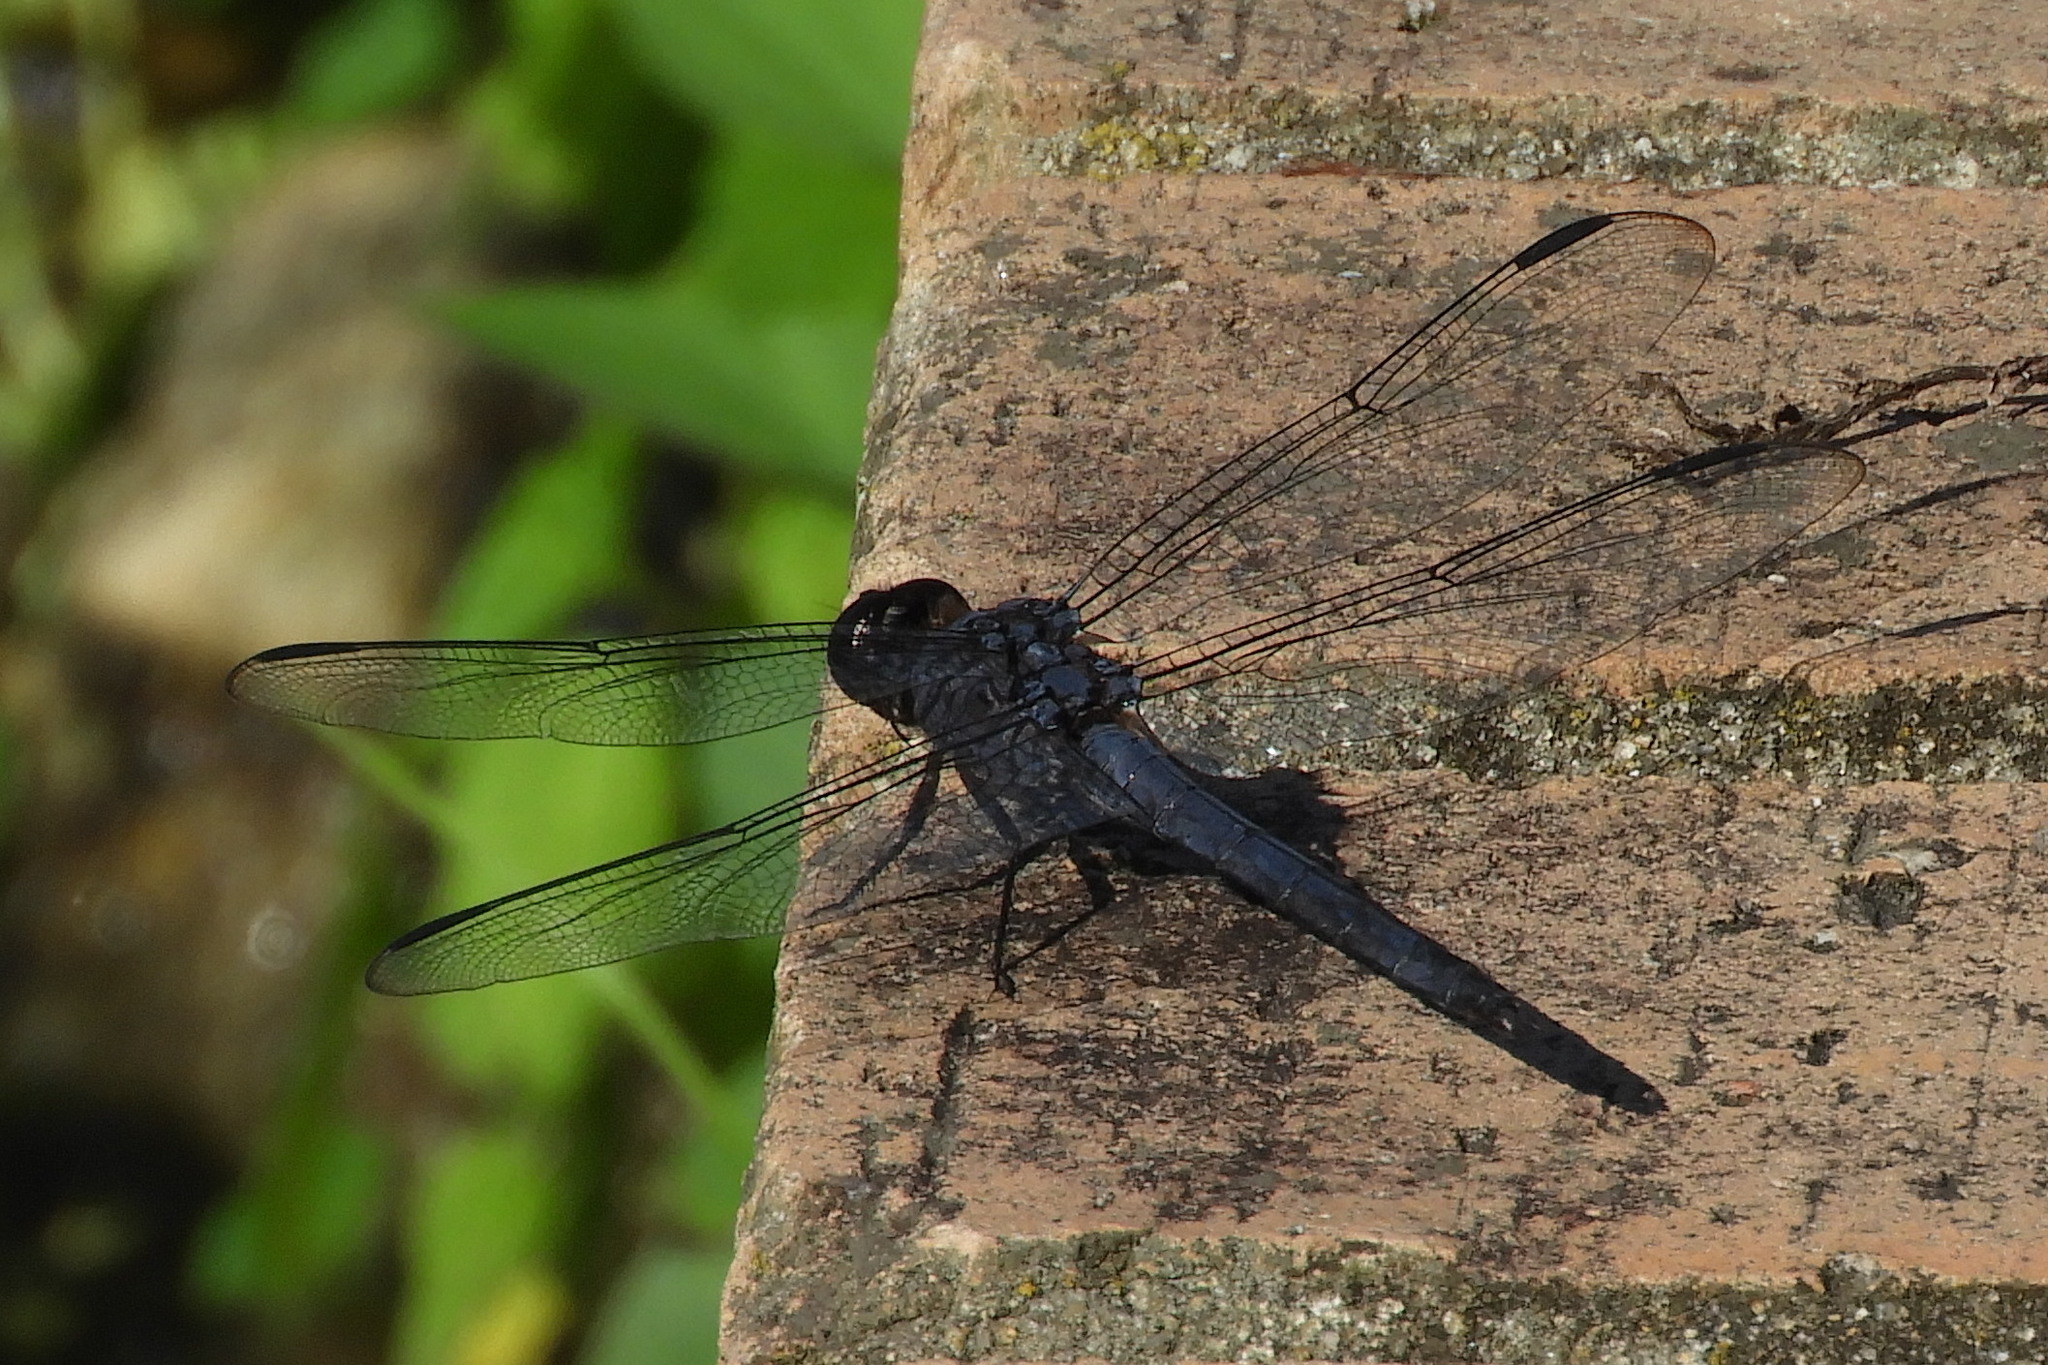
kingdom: Animalia
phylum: Arthropoda
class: Insecta
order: Odonata
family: Libellulidae
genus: Libellula
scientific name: Libellula incesta
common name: Slaty skimmer
